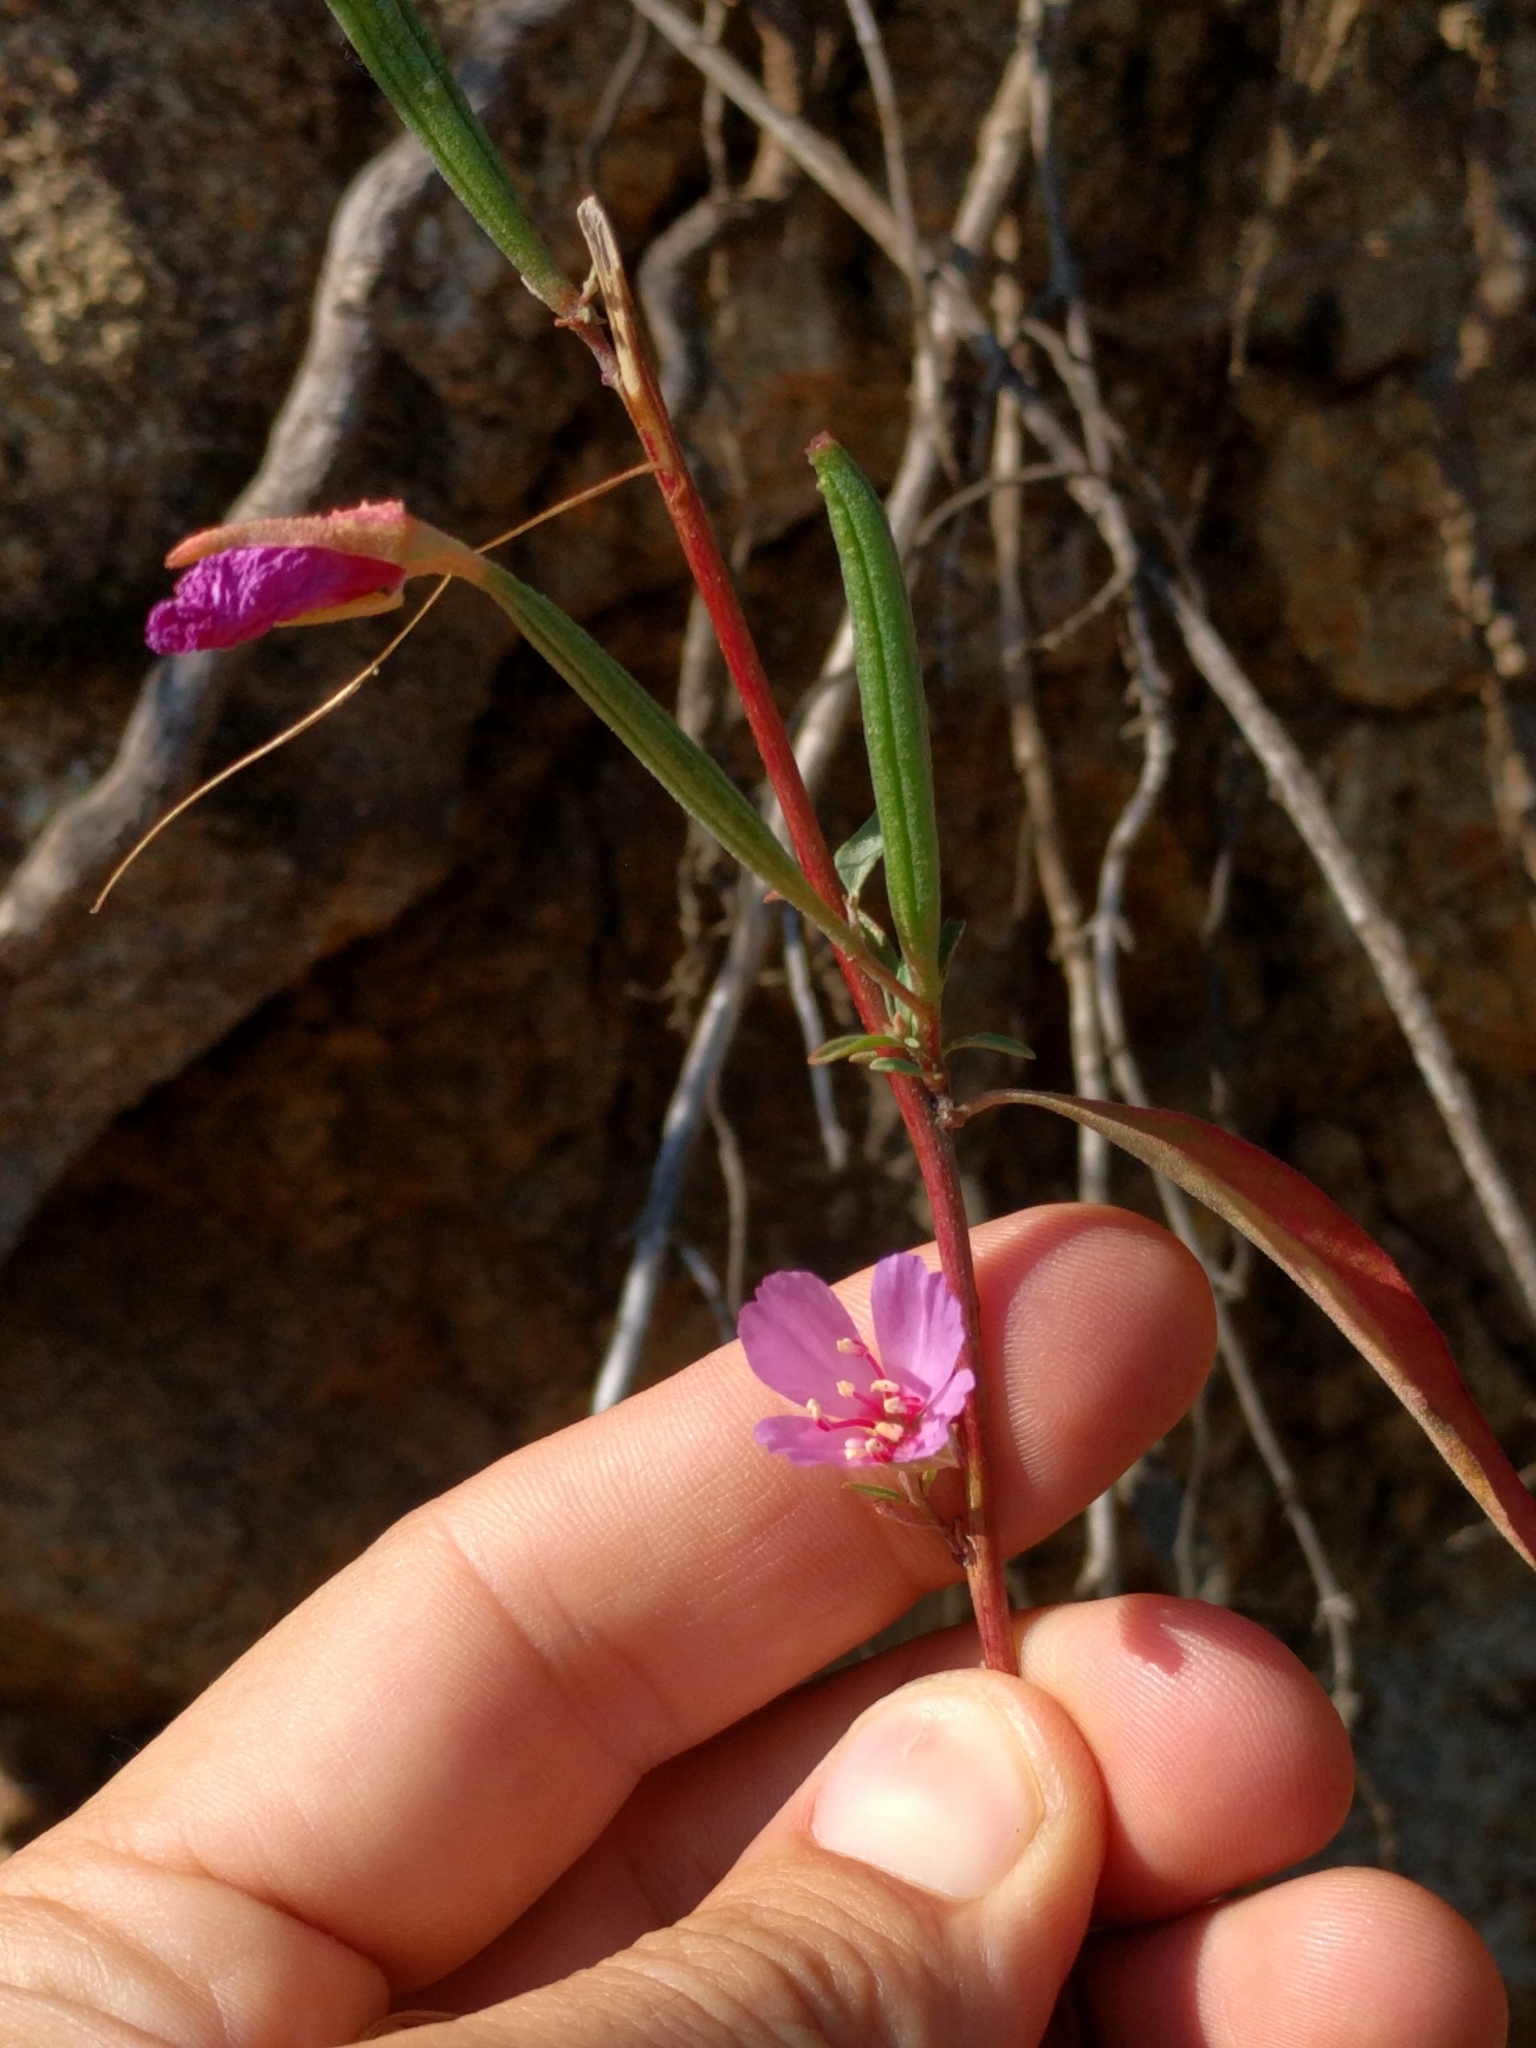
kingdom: Plantae
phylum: Tracheophyta
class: Magnoliopsida
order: Myrtales
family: Onagraceae
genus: Clarkia
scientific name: Clarkia rubicunda
